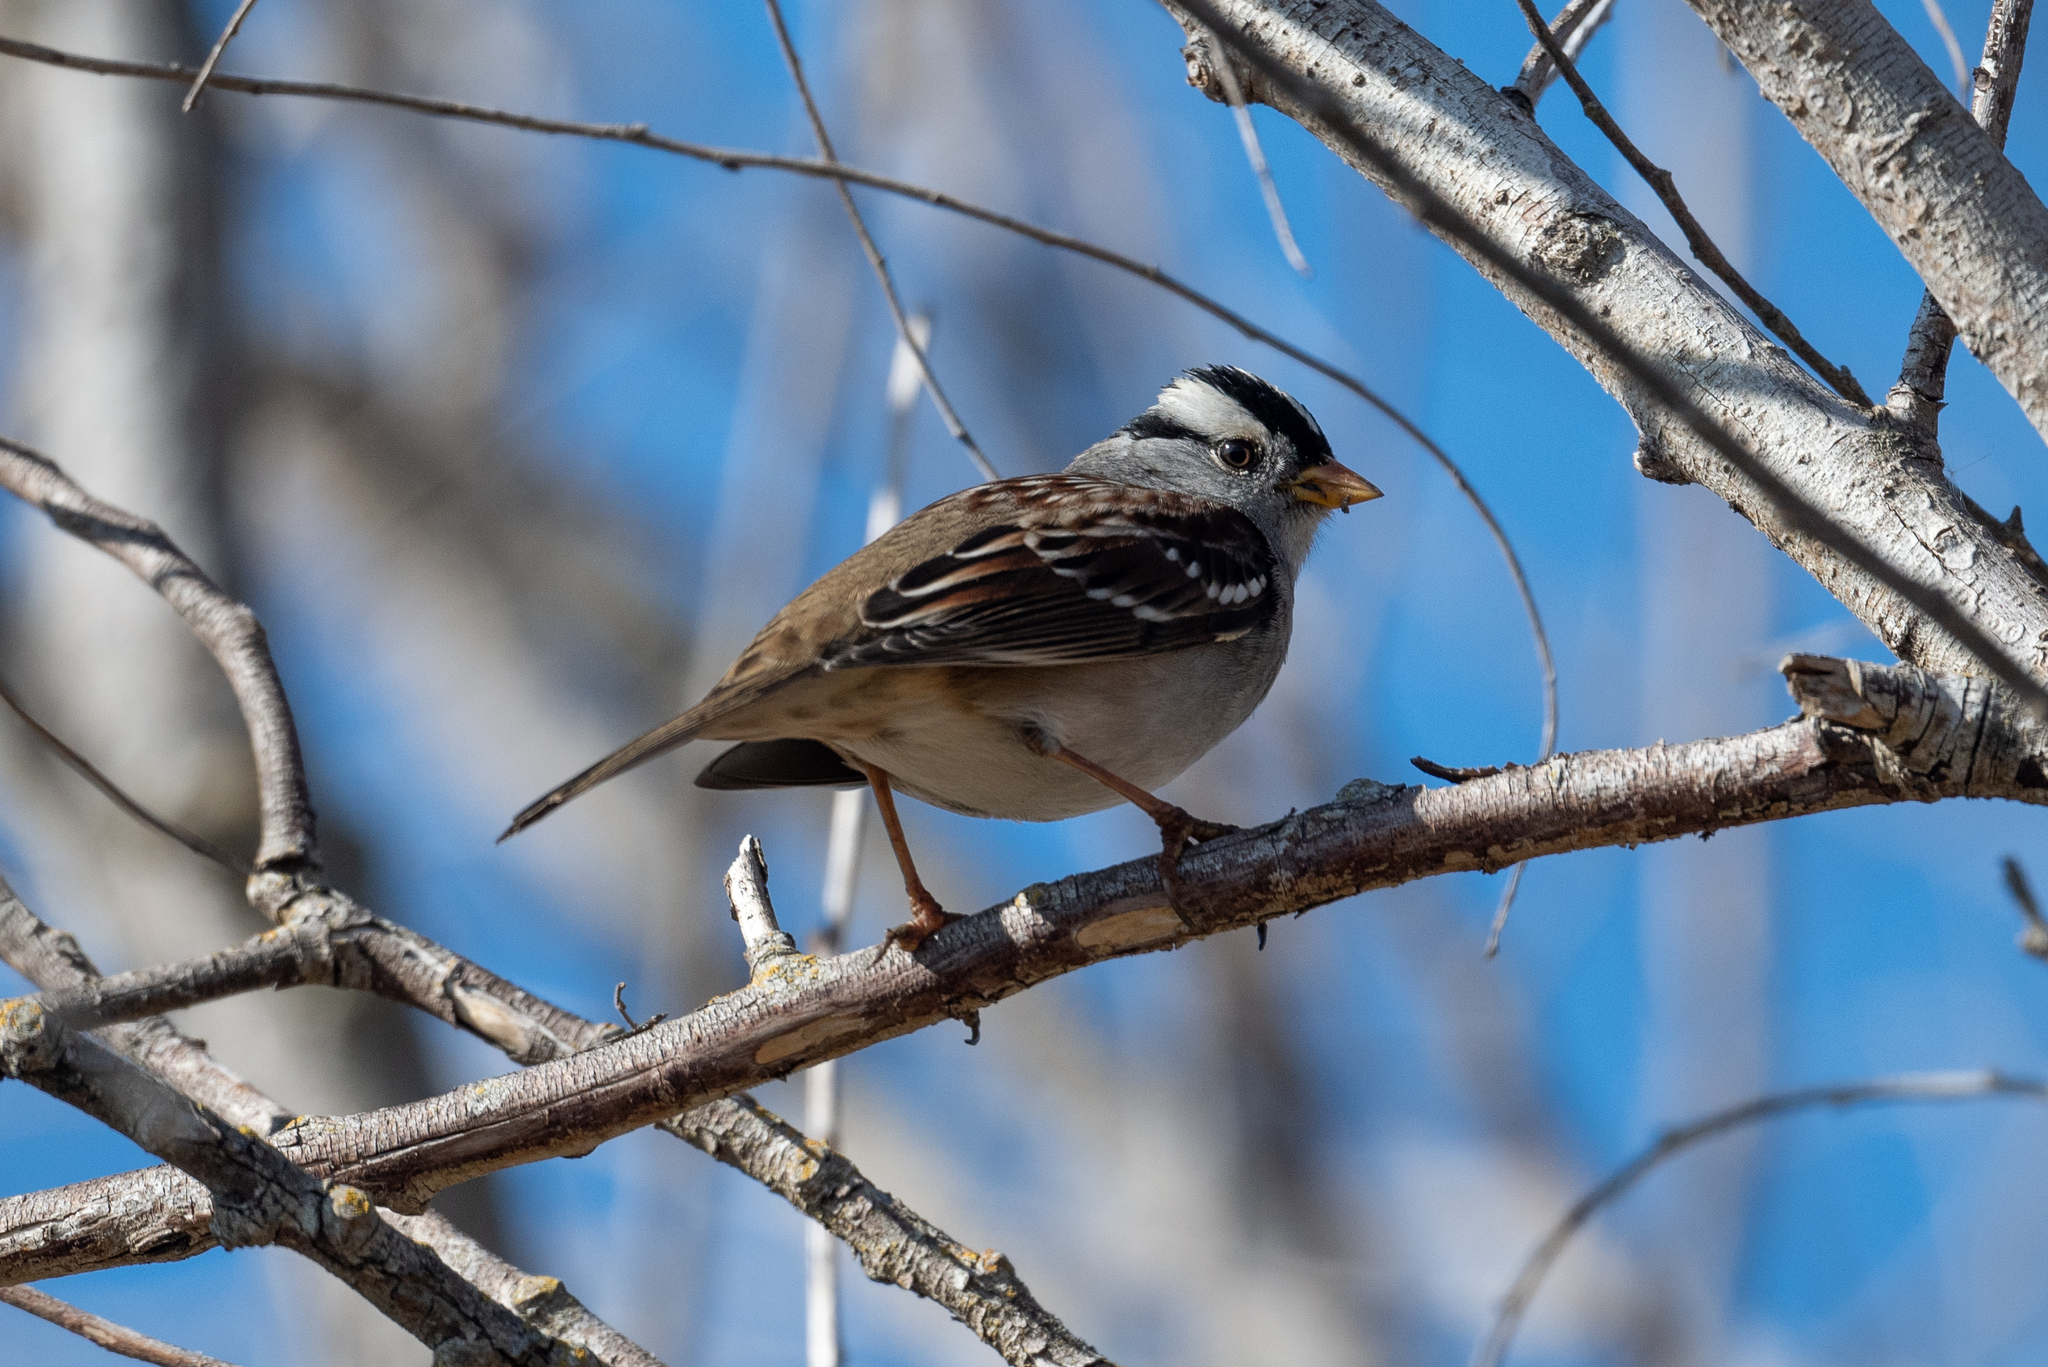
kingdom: Animalia
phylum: Chordata
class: Aves
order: Passeriformes
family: Passerellidae
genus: Zonotrichia
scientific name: Zonotrichia leucophrys
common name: White-crowned sparrow
